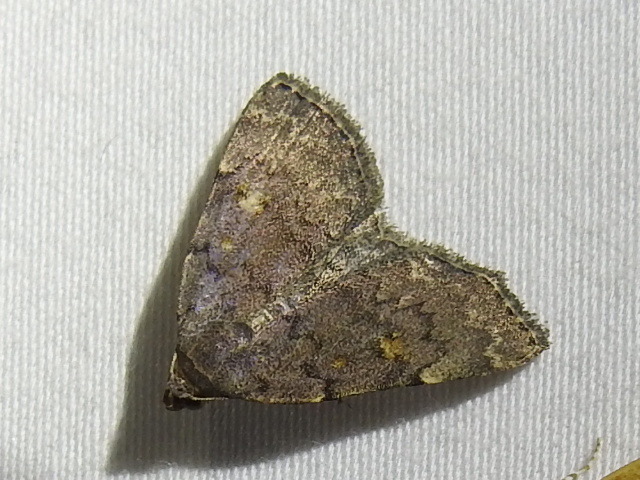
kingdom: Animalia
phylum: Arthropoda
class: Insecta
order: Lepidoptera
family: Erebidae
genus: Idia
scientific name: Idia aemula
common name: Common idia moth
